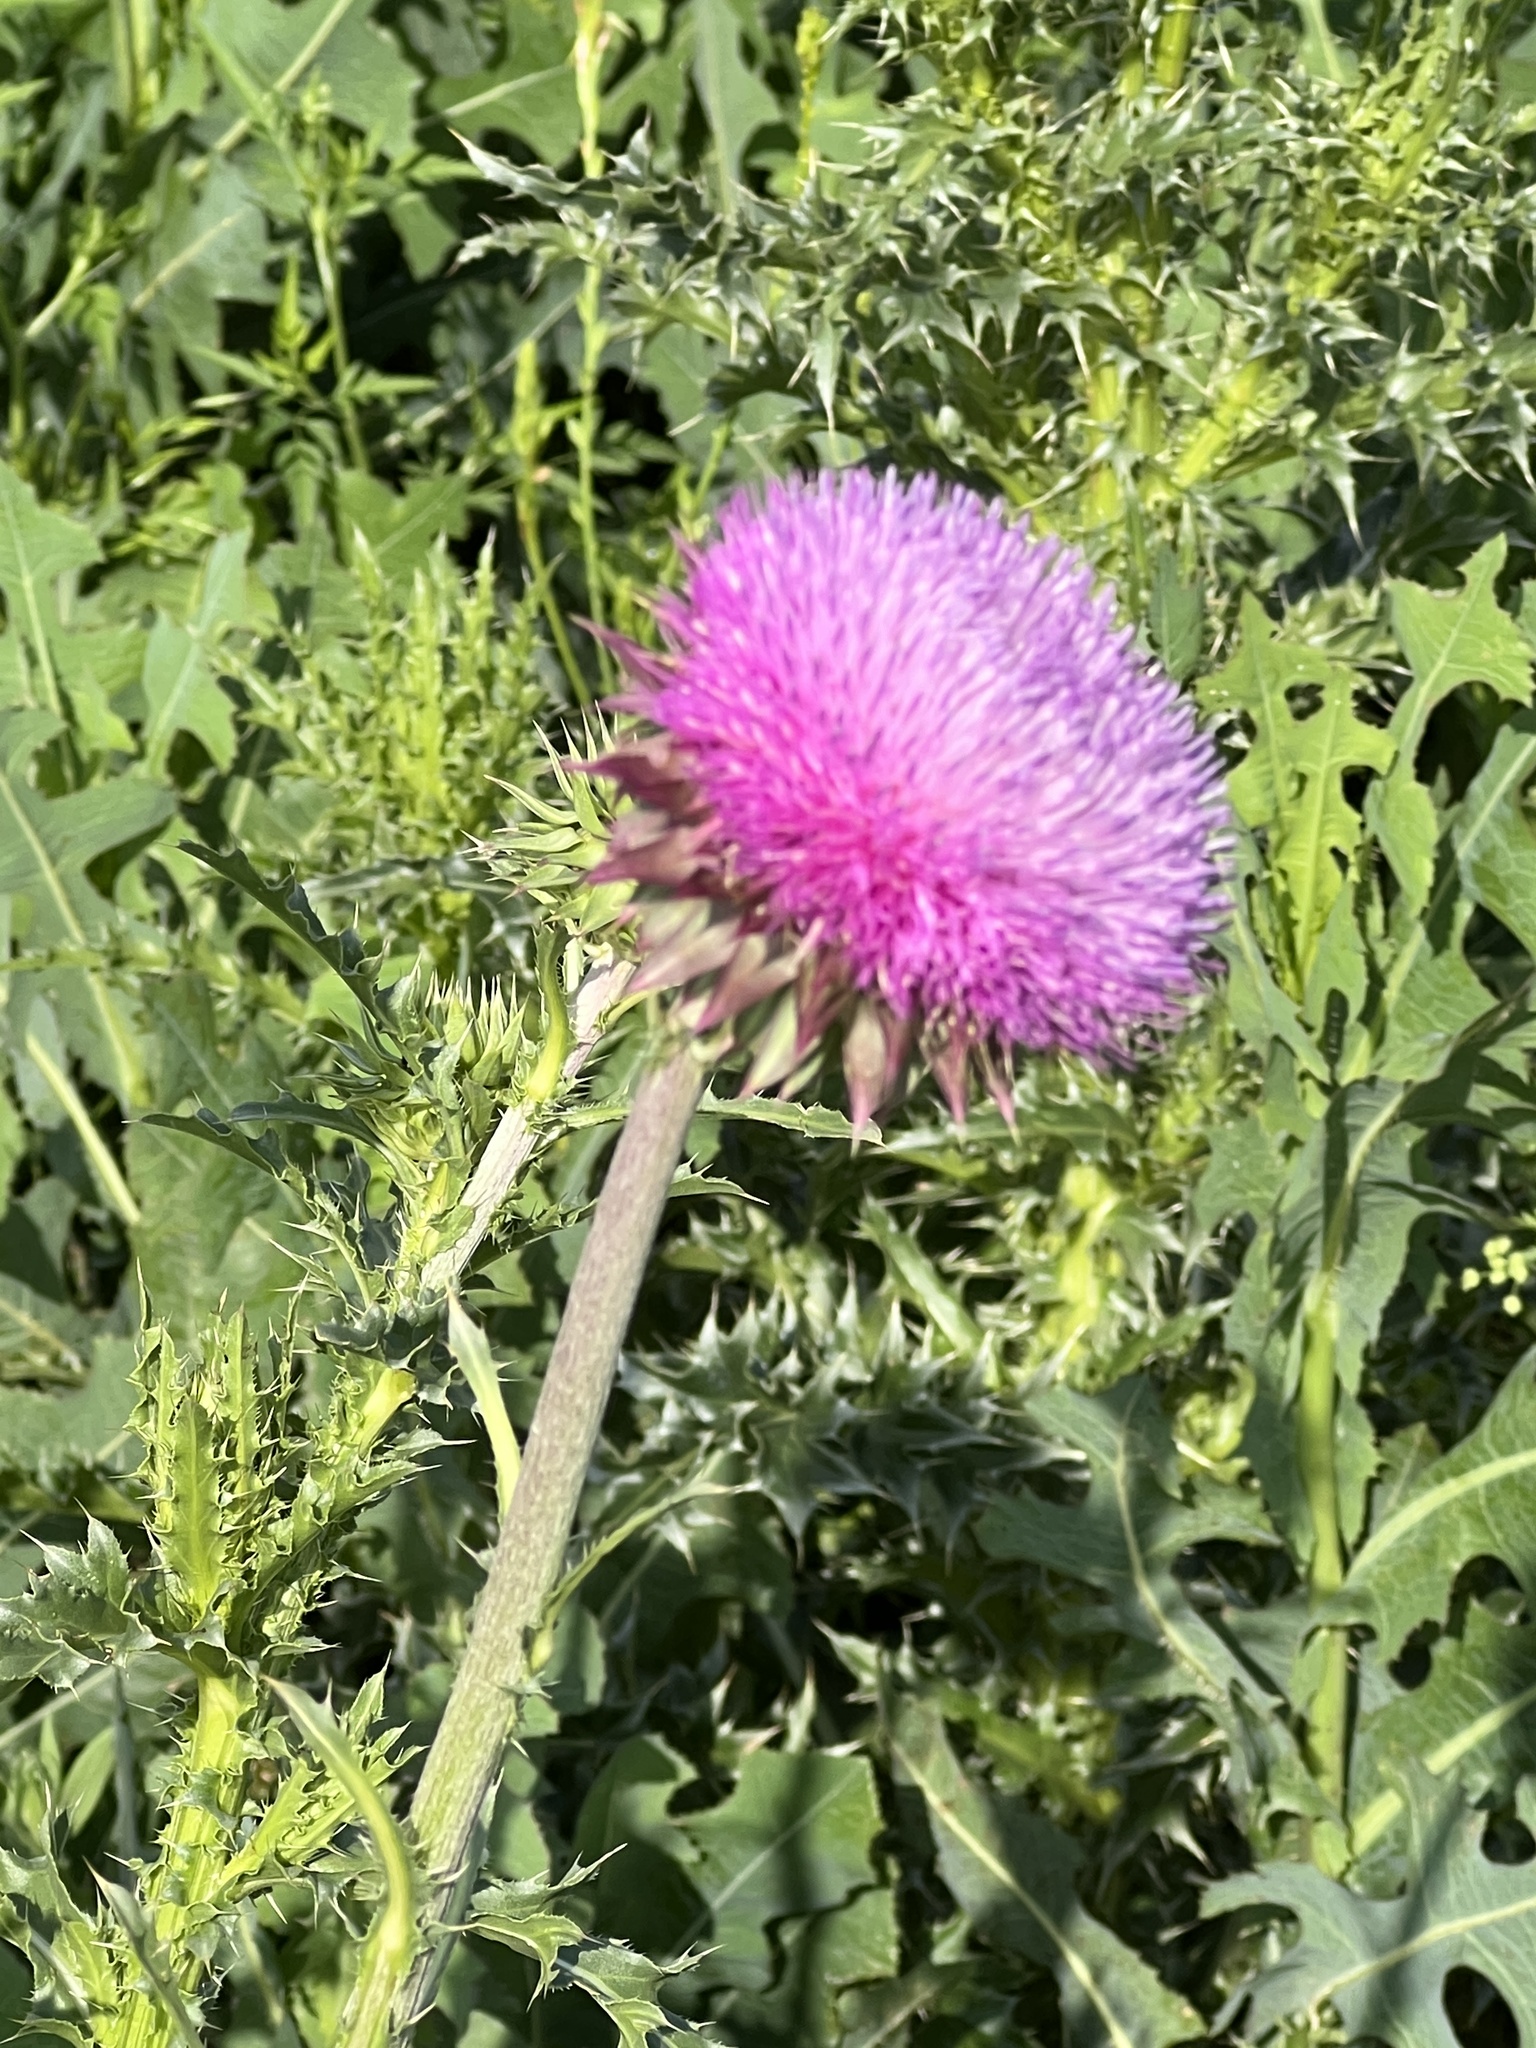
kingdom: Plantae
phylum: Tracheophyta
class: Magnoliopsida
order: Asterales
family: Asteraceae
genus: Carduus
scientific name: Carduus nutans
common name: Musk thistle
